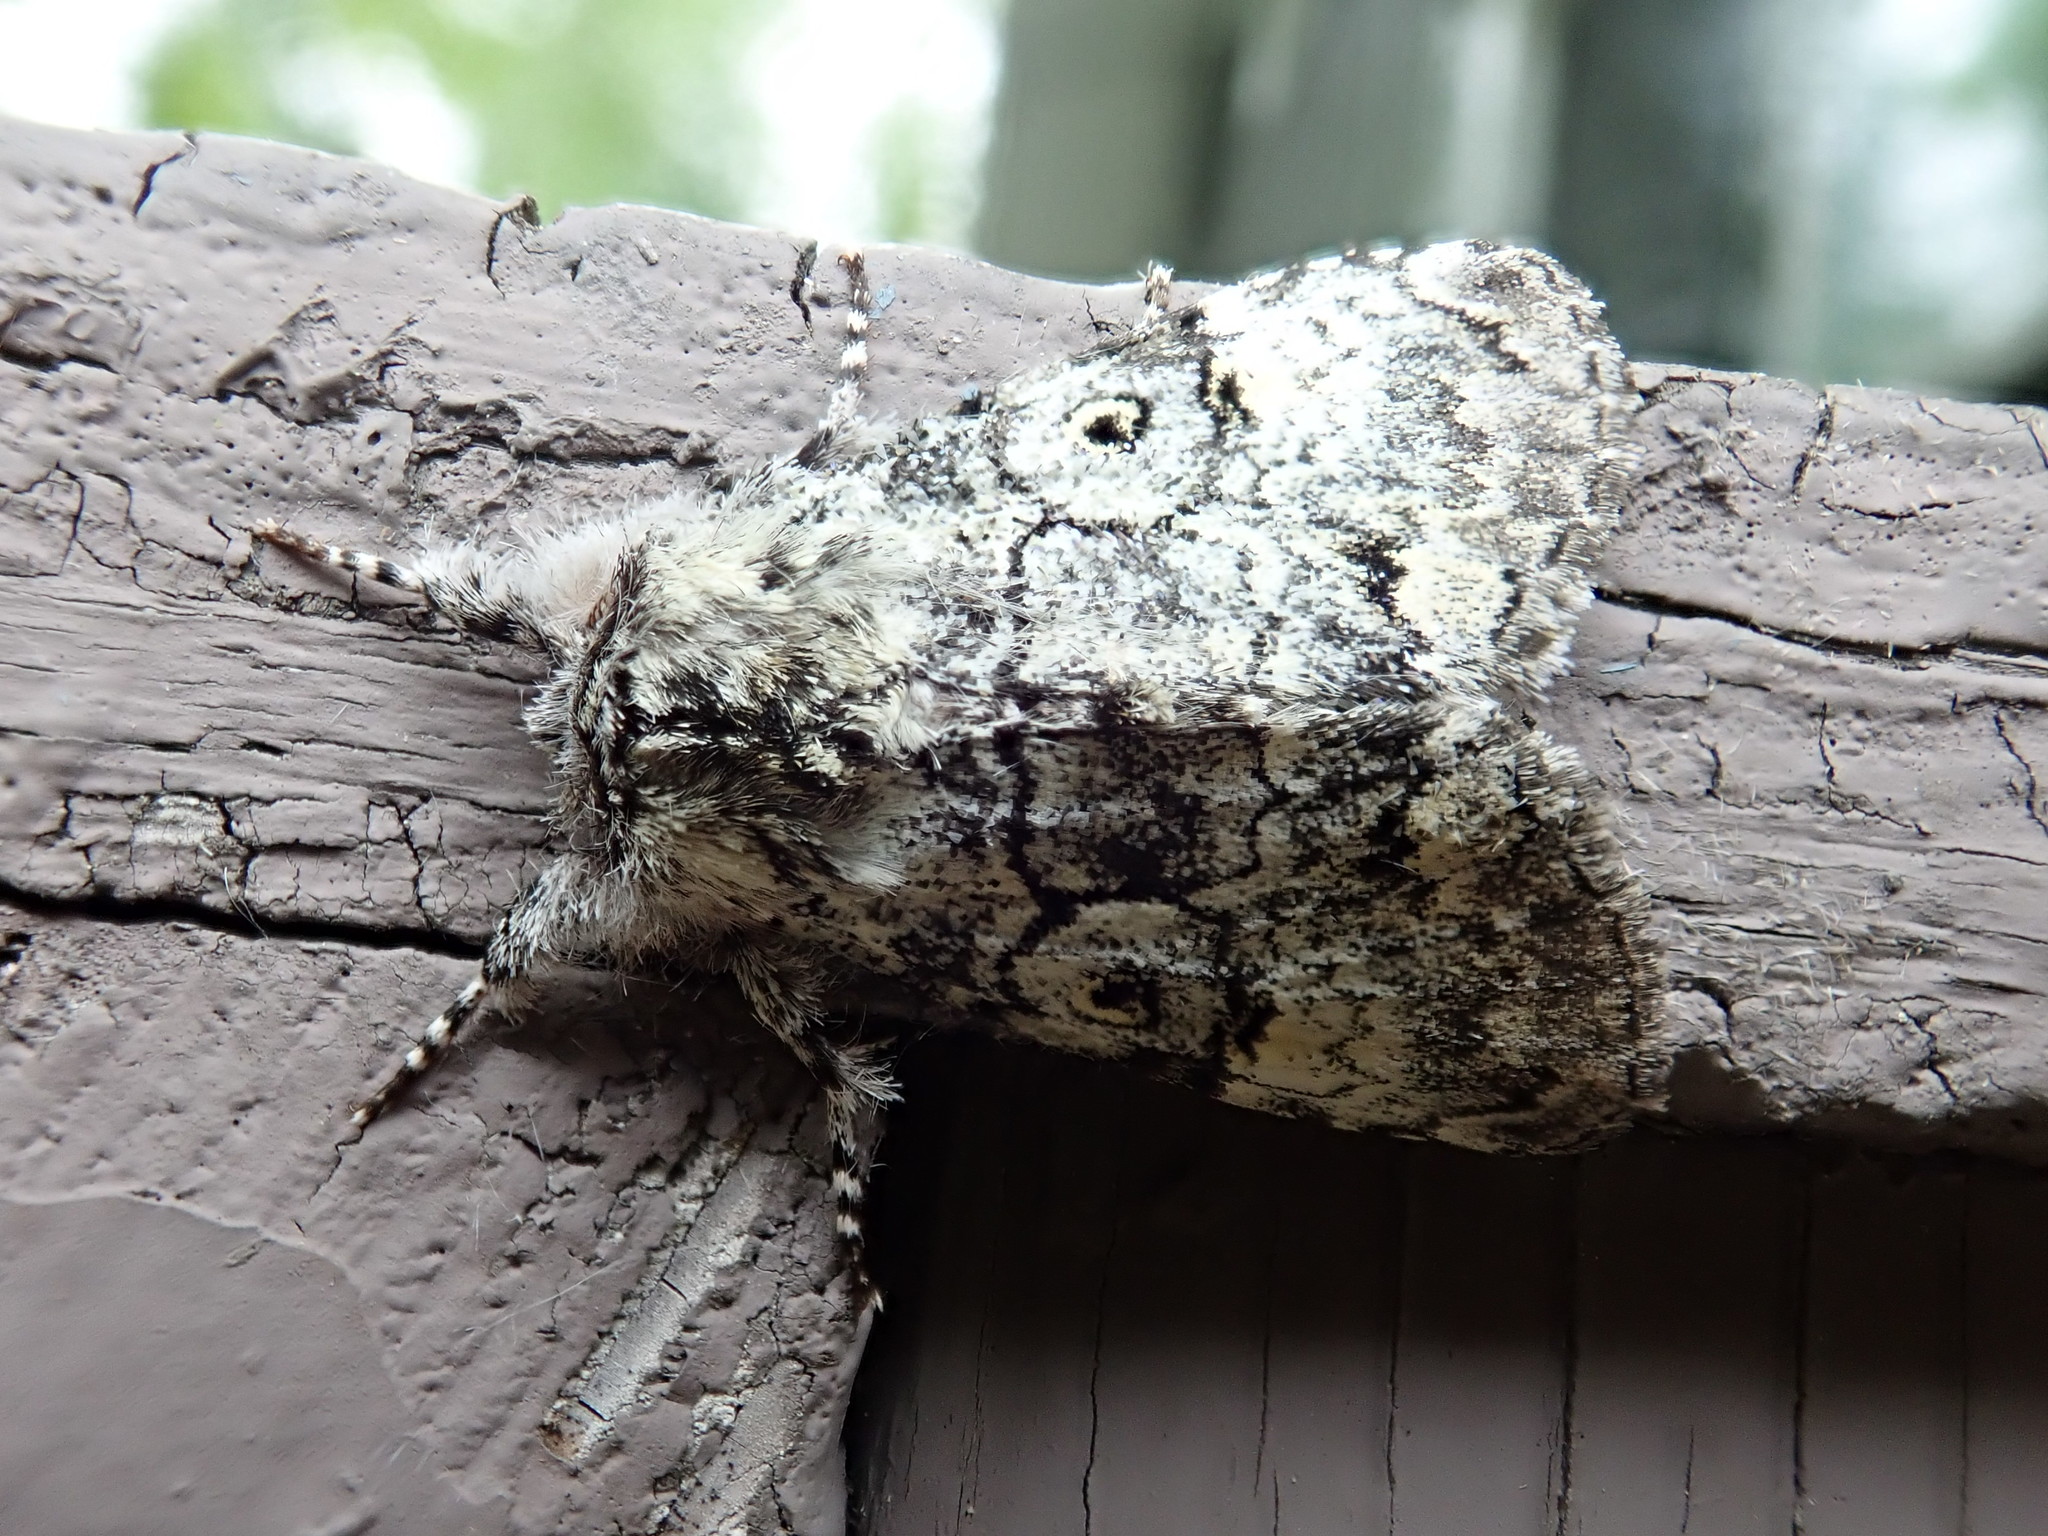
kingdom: Animalia
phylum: Arthropoda
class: Insecta
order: Lepidoptera
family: Noctuidae
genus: Charadra
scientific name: Charadra deridens
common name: Marbled tuffet
